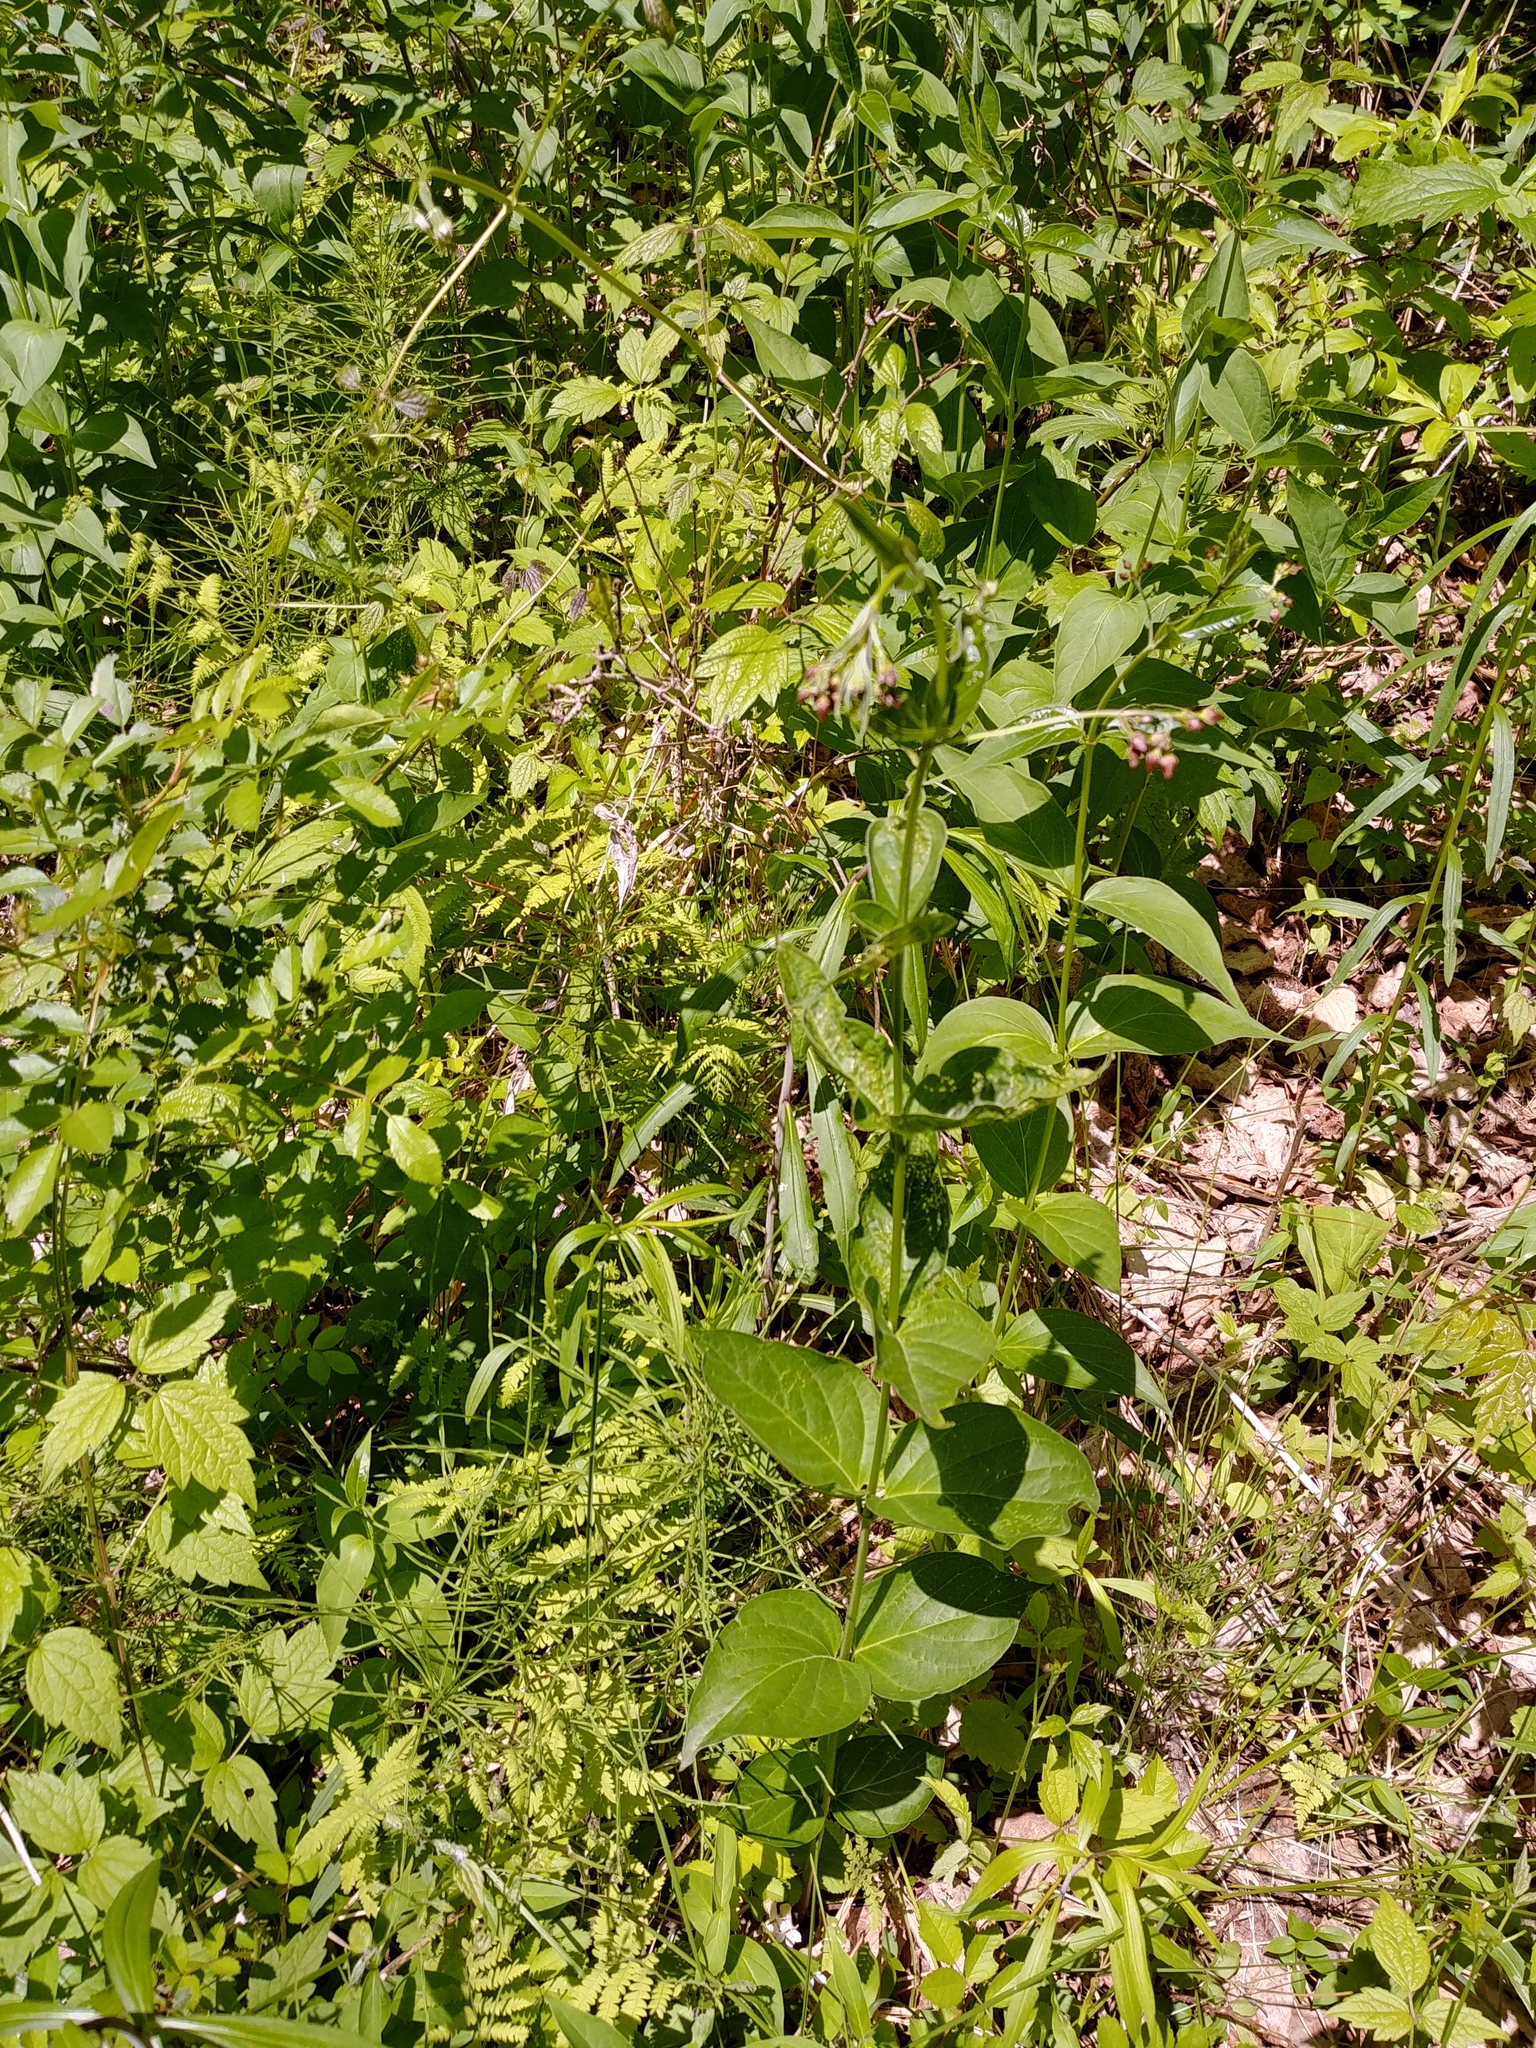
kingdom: Plantae
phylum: Tracheophyta
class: Magnoliopsida
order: Gentianales
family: Apocynaceae
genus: Vincetoxicum
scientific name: Vincetoxicum rossicum
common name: Dog-strangling vine
